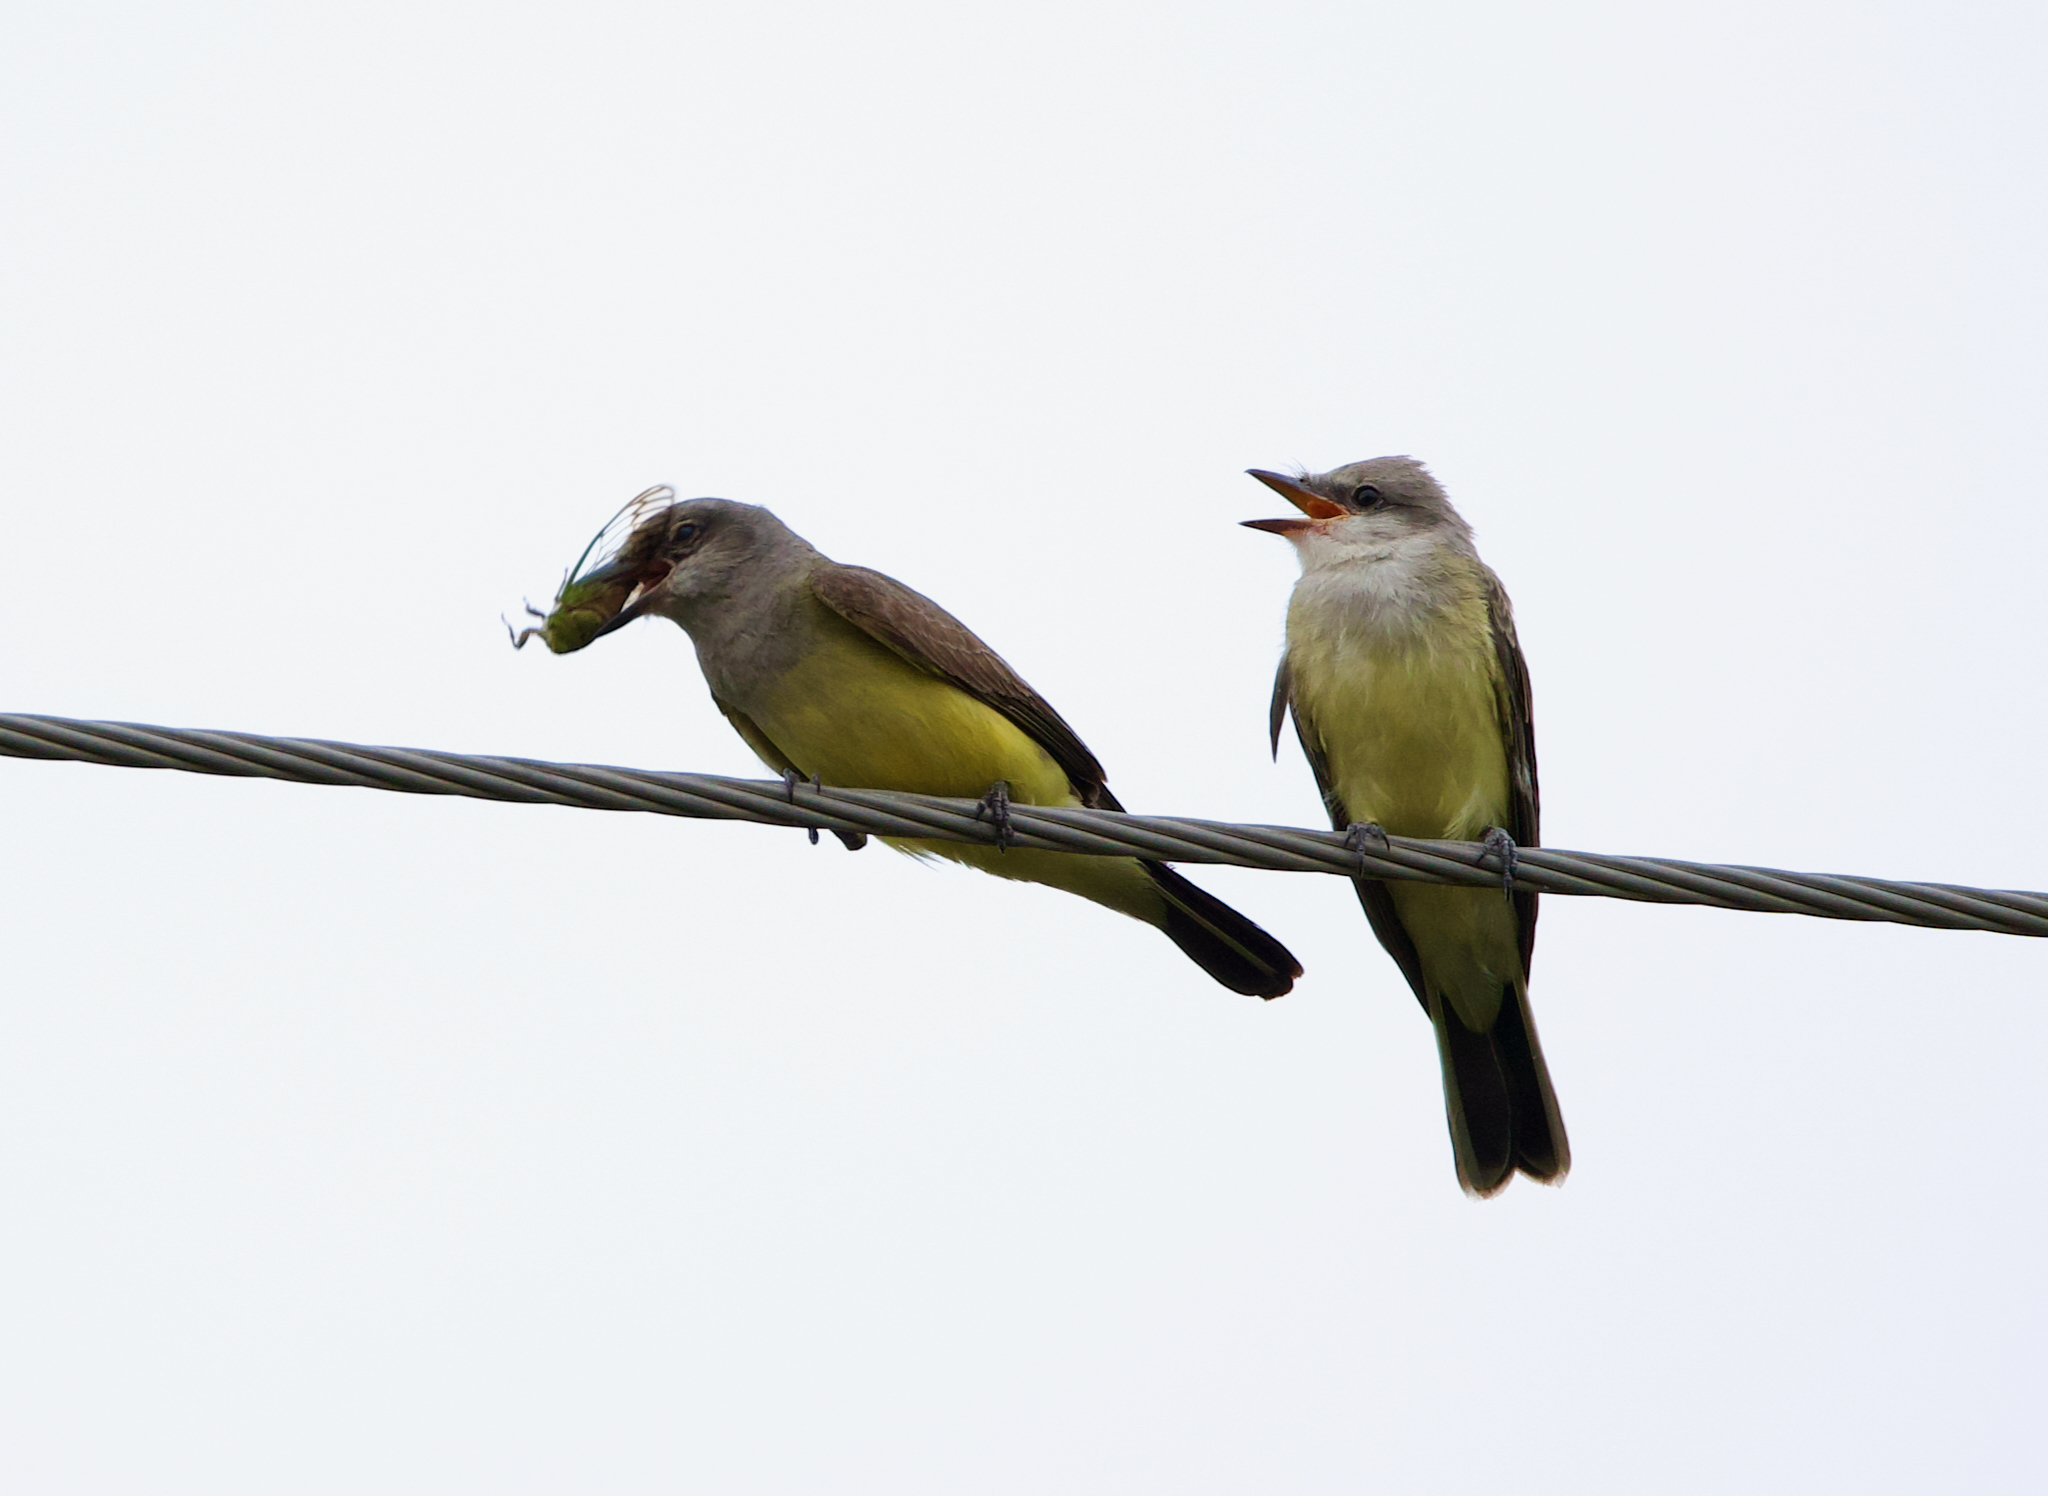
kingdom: Animalia
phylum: Chordata
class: Aves
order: Passeriformes
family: Tyrannidae
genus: Tyrannus
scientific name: Tyrannus verticalis
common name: Western kingbird
